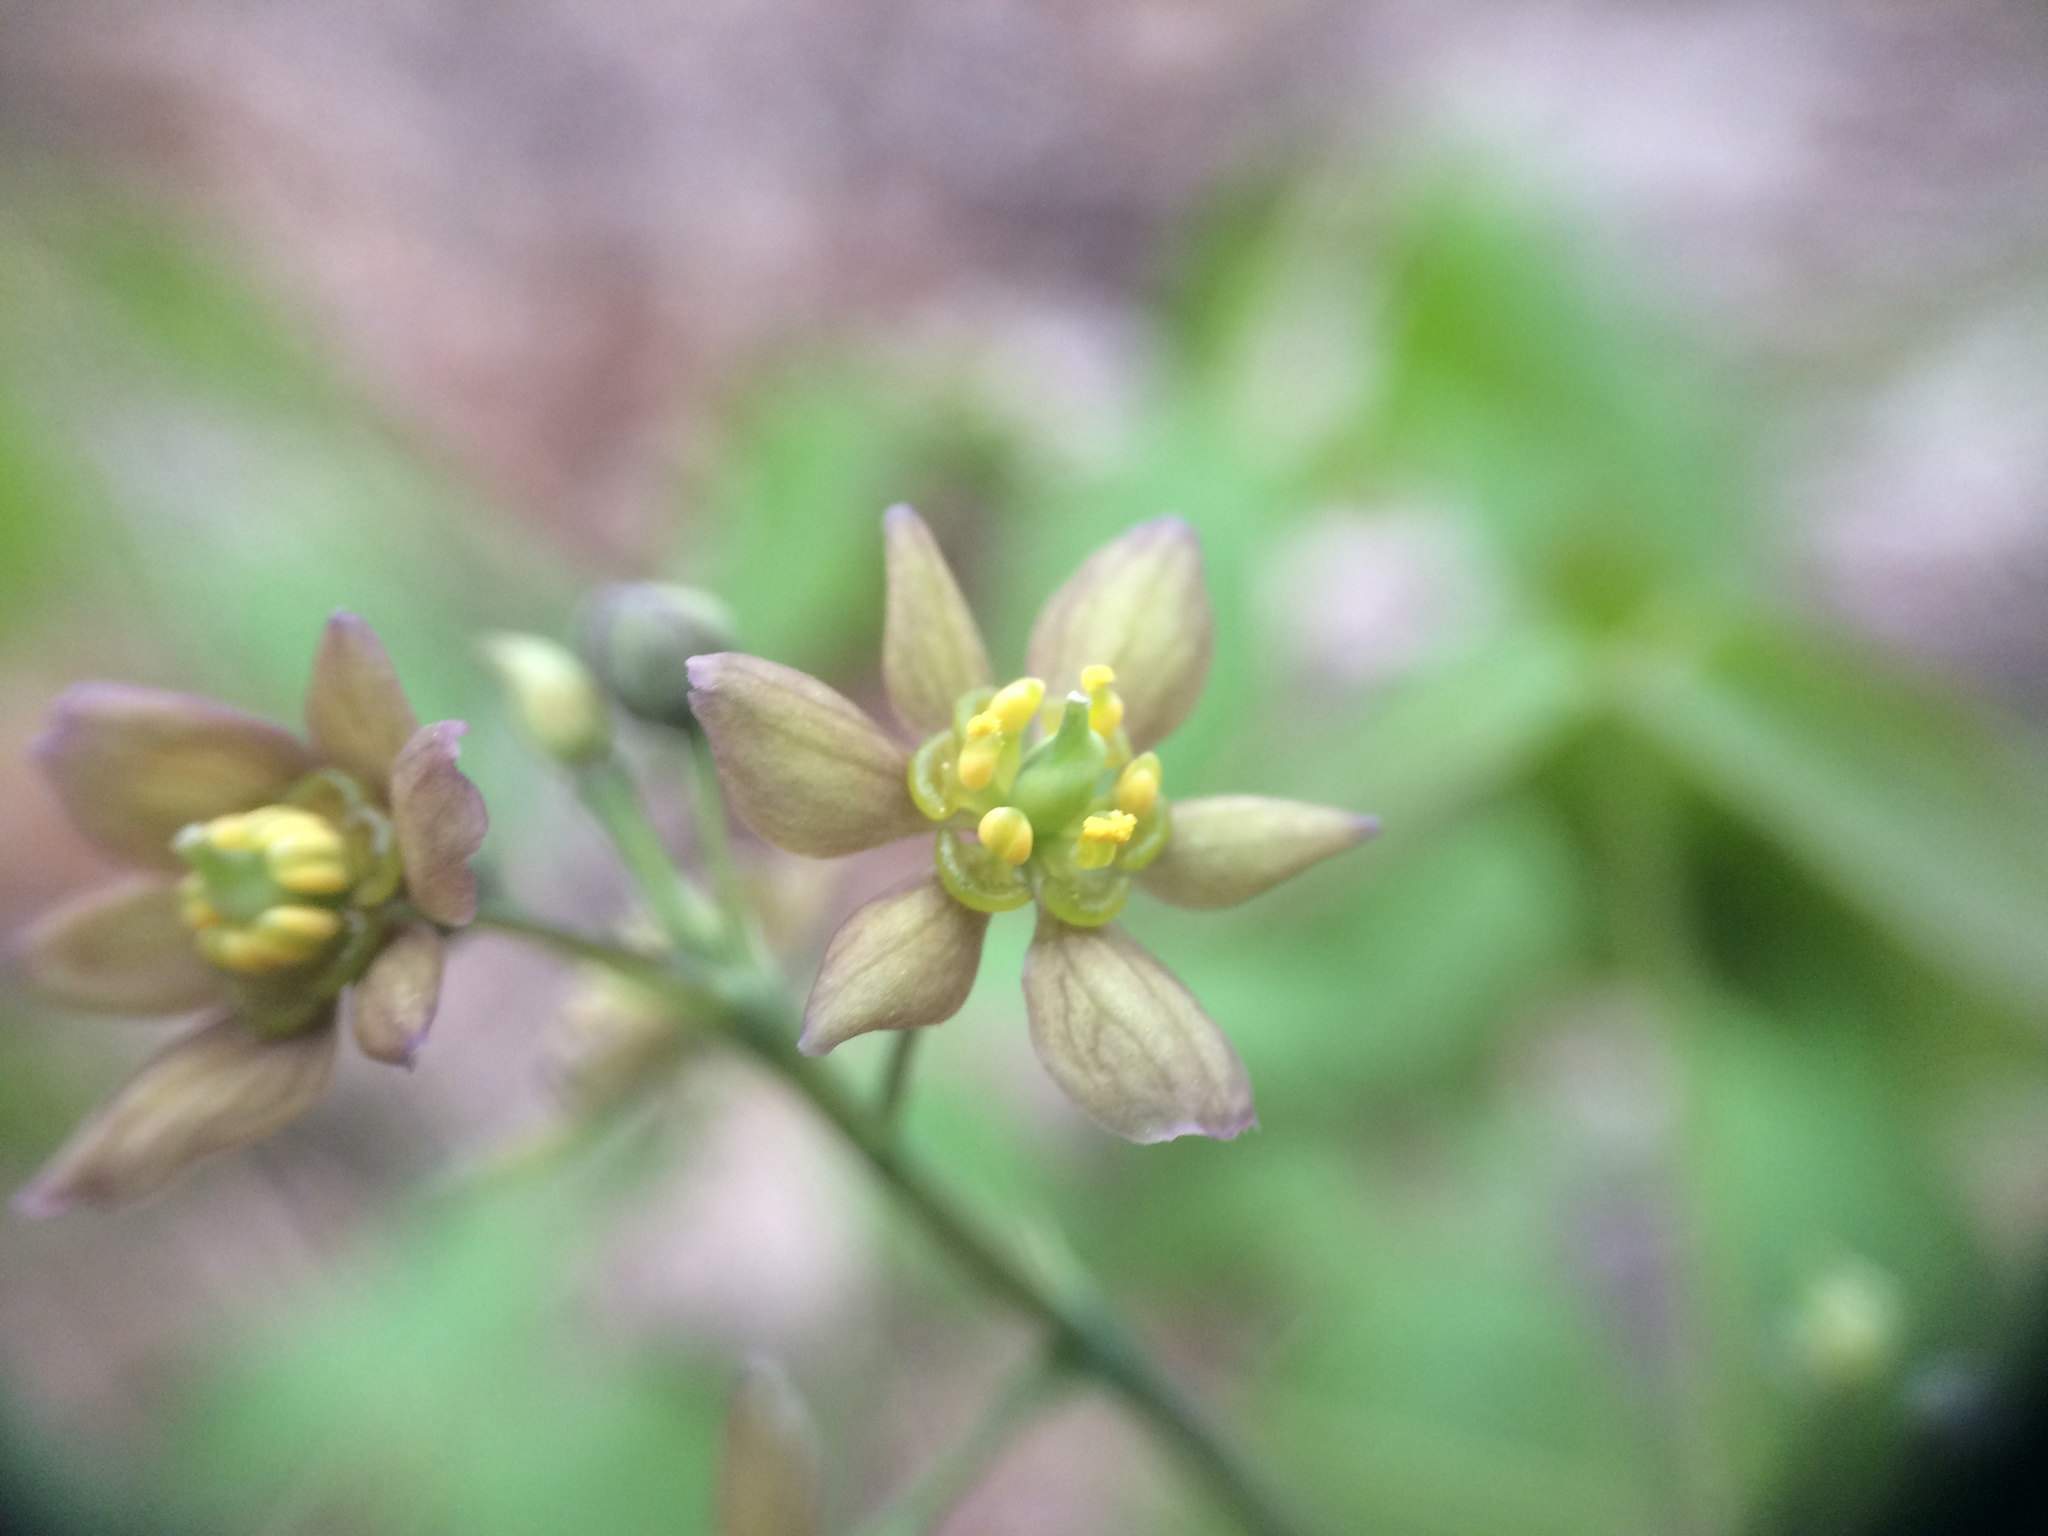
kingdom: Plantae
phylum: Tracheophyta
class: Magnoliopsida
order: Ranunculales
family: Berberidaceae
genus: Caulophyllum
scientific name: Caulophyllum
